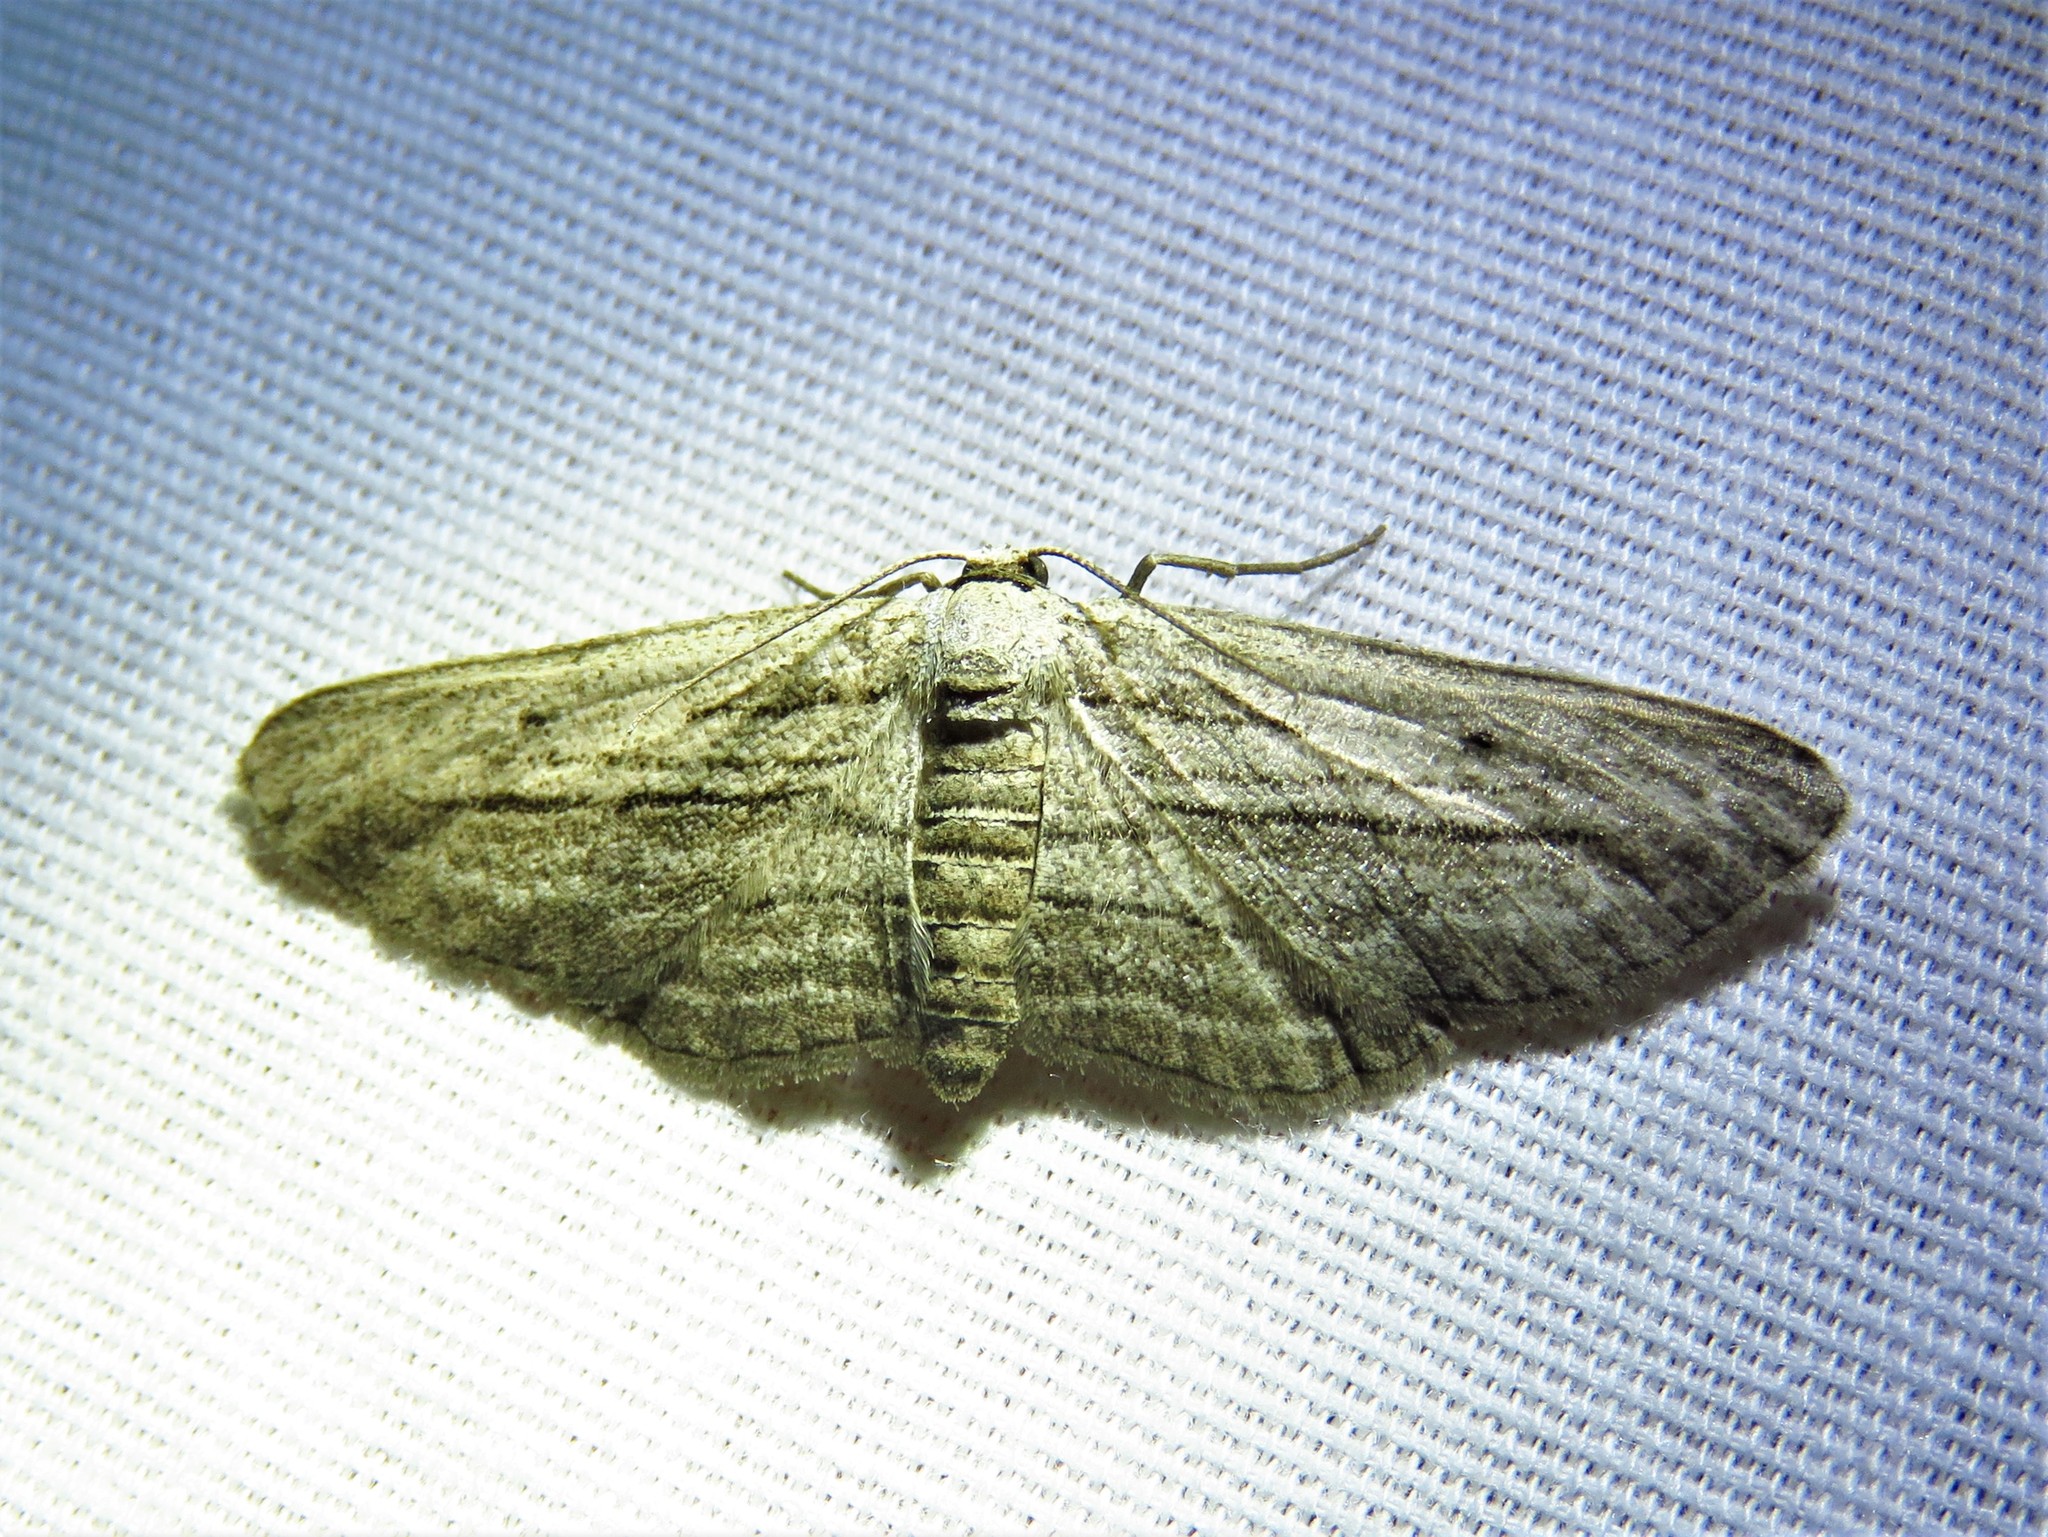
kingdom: Animalia
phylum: Arthropoda
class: Insecta
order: Lepidoptera
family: Geometridae
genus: Glena
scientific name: Glena quinquelinearia
